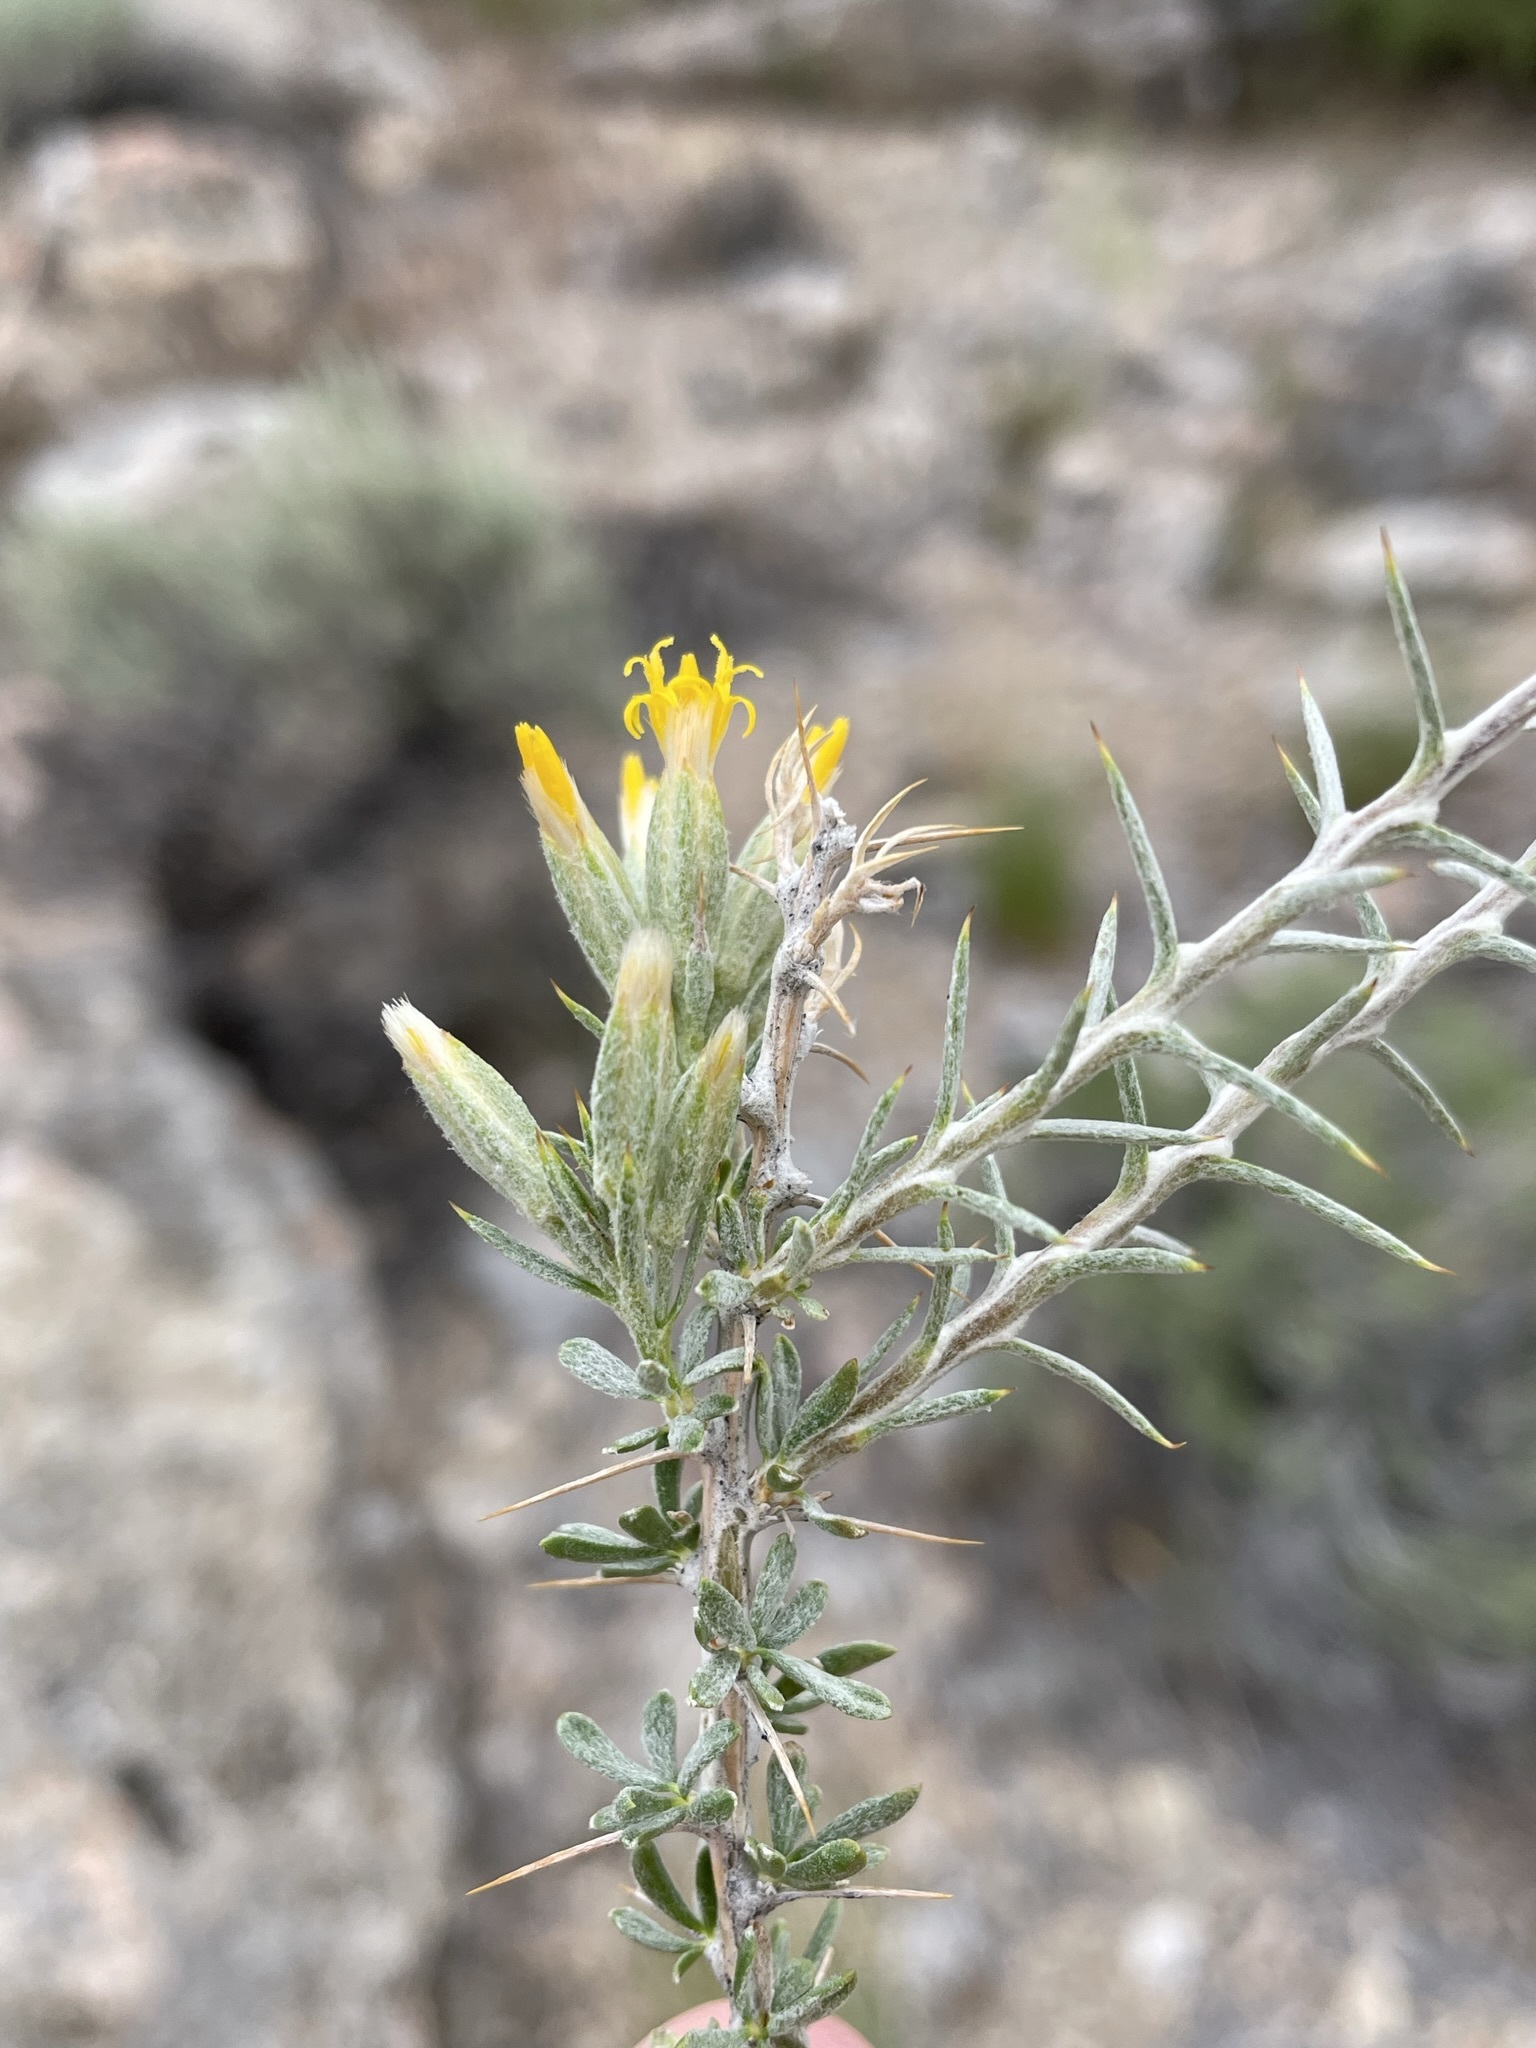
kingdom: Plantae
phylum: Tracheophyta
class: Magnoliopsida
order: Asterales
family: Asteraceae
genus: Tetradymia
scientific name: Tetradymia nuttallii
